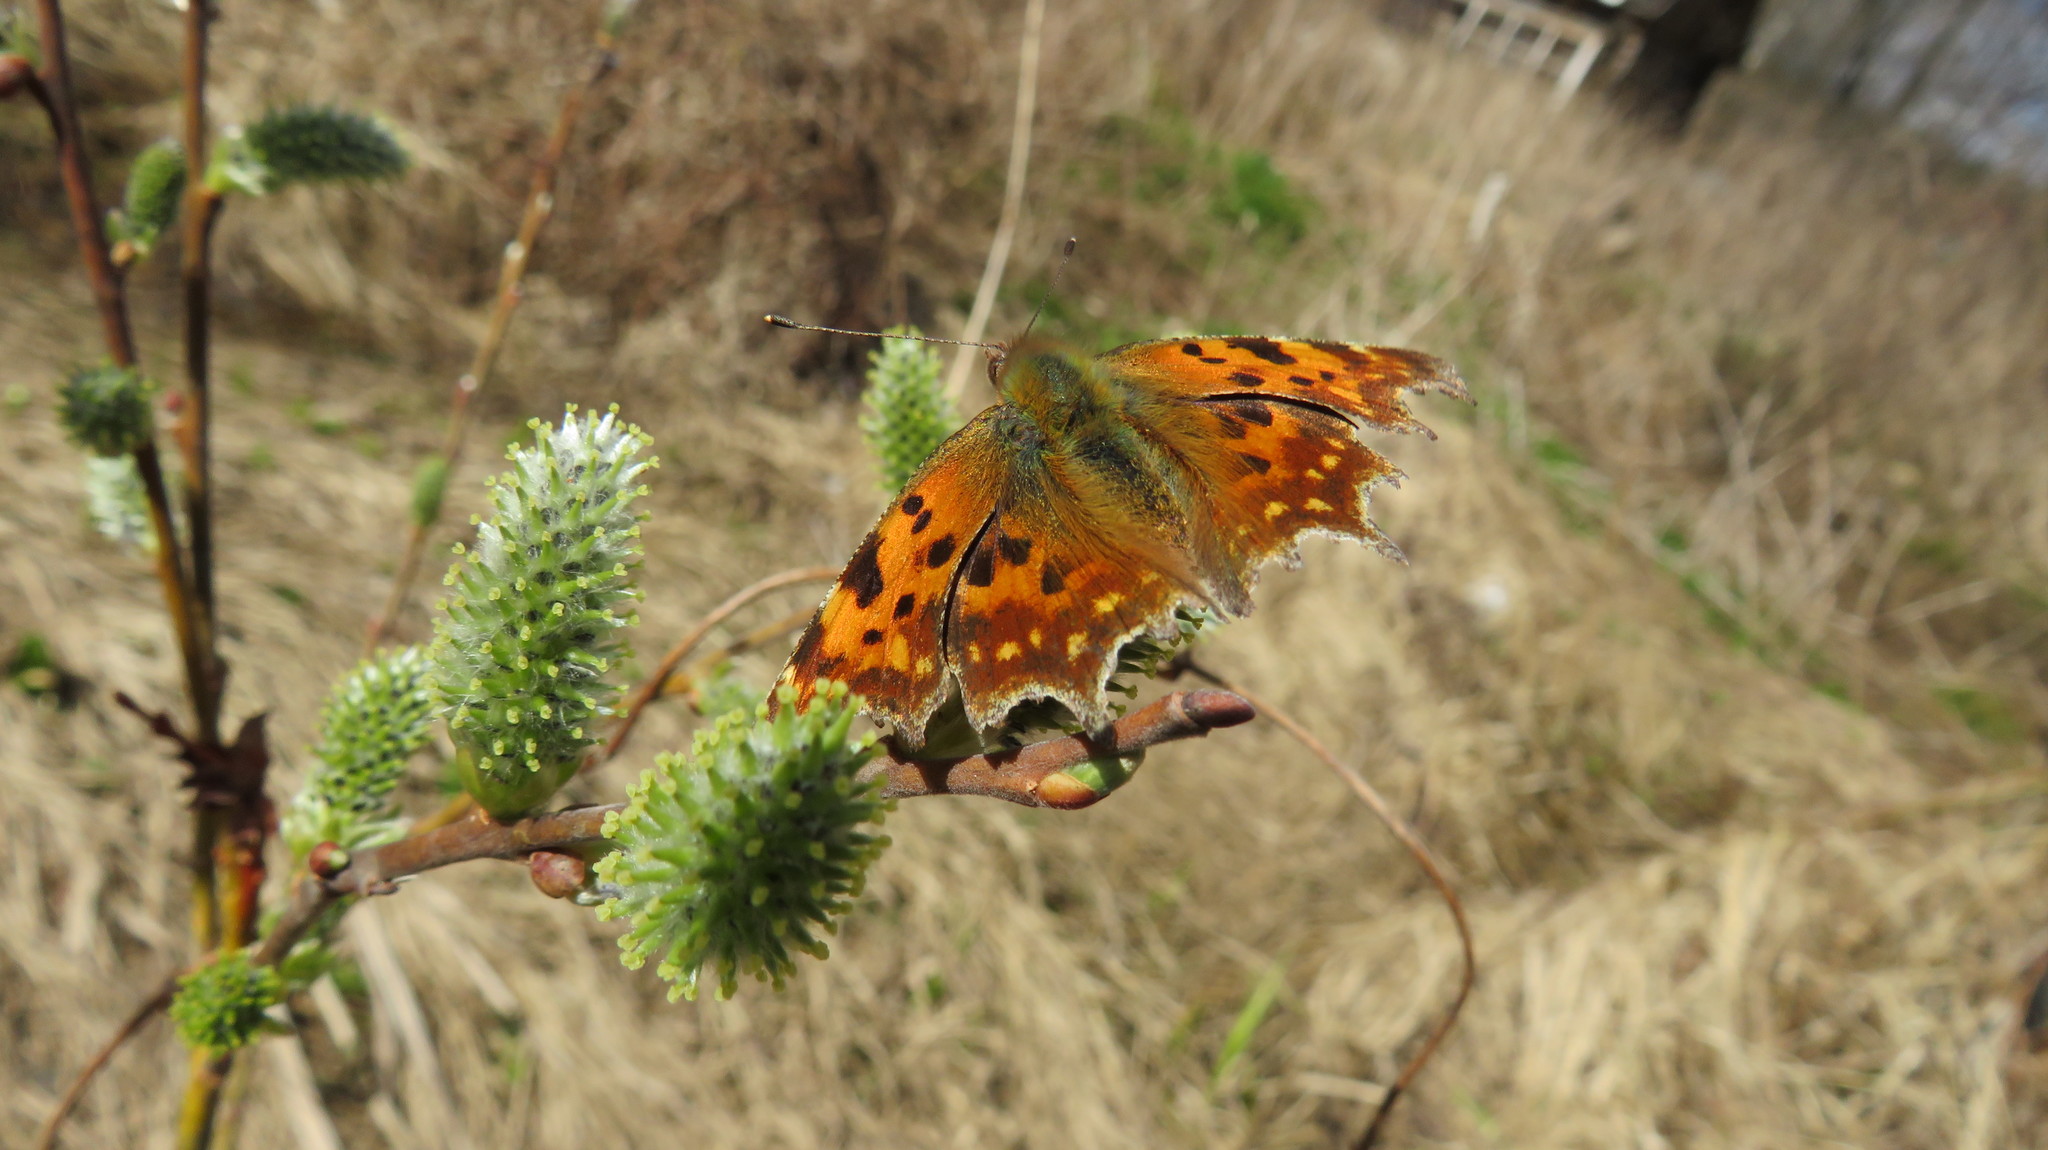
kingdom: Animalia
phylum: Arthropoda
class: Insecta
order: Lepidoptera
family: Nymphalidae
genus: Polygonia
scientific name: Polygonia c-album
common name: Comma
